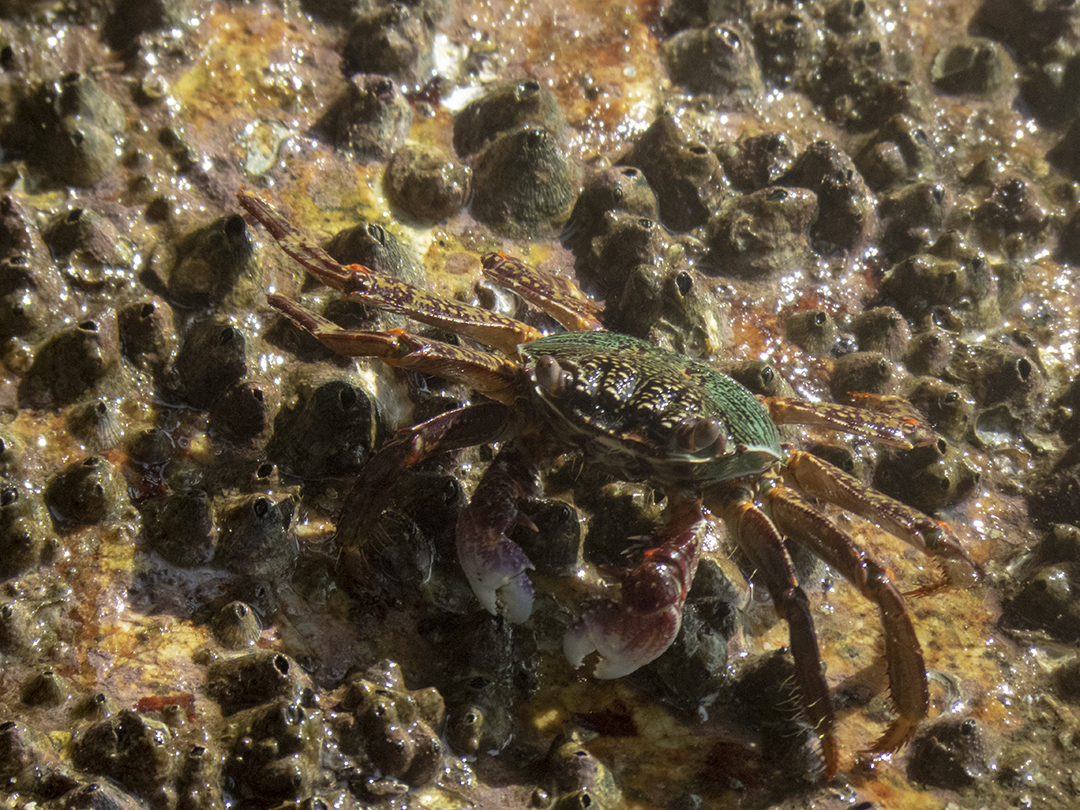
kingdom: Animalia
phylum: Arthropoda
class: Malacostraca
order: Decapoda
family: Grapsidae
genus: Grapsus
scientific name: Grapsus albolineatus
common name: Mottled lightfoot crab
